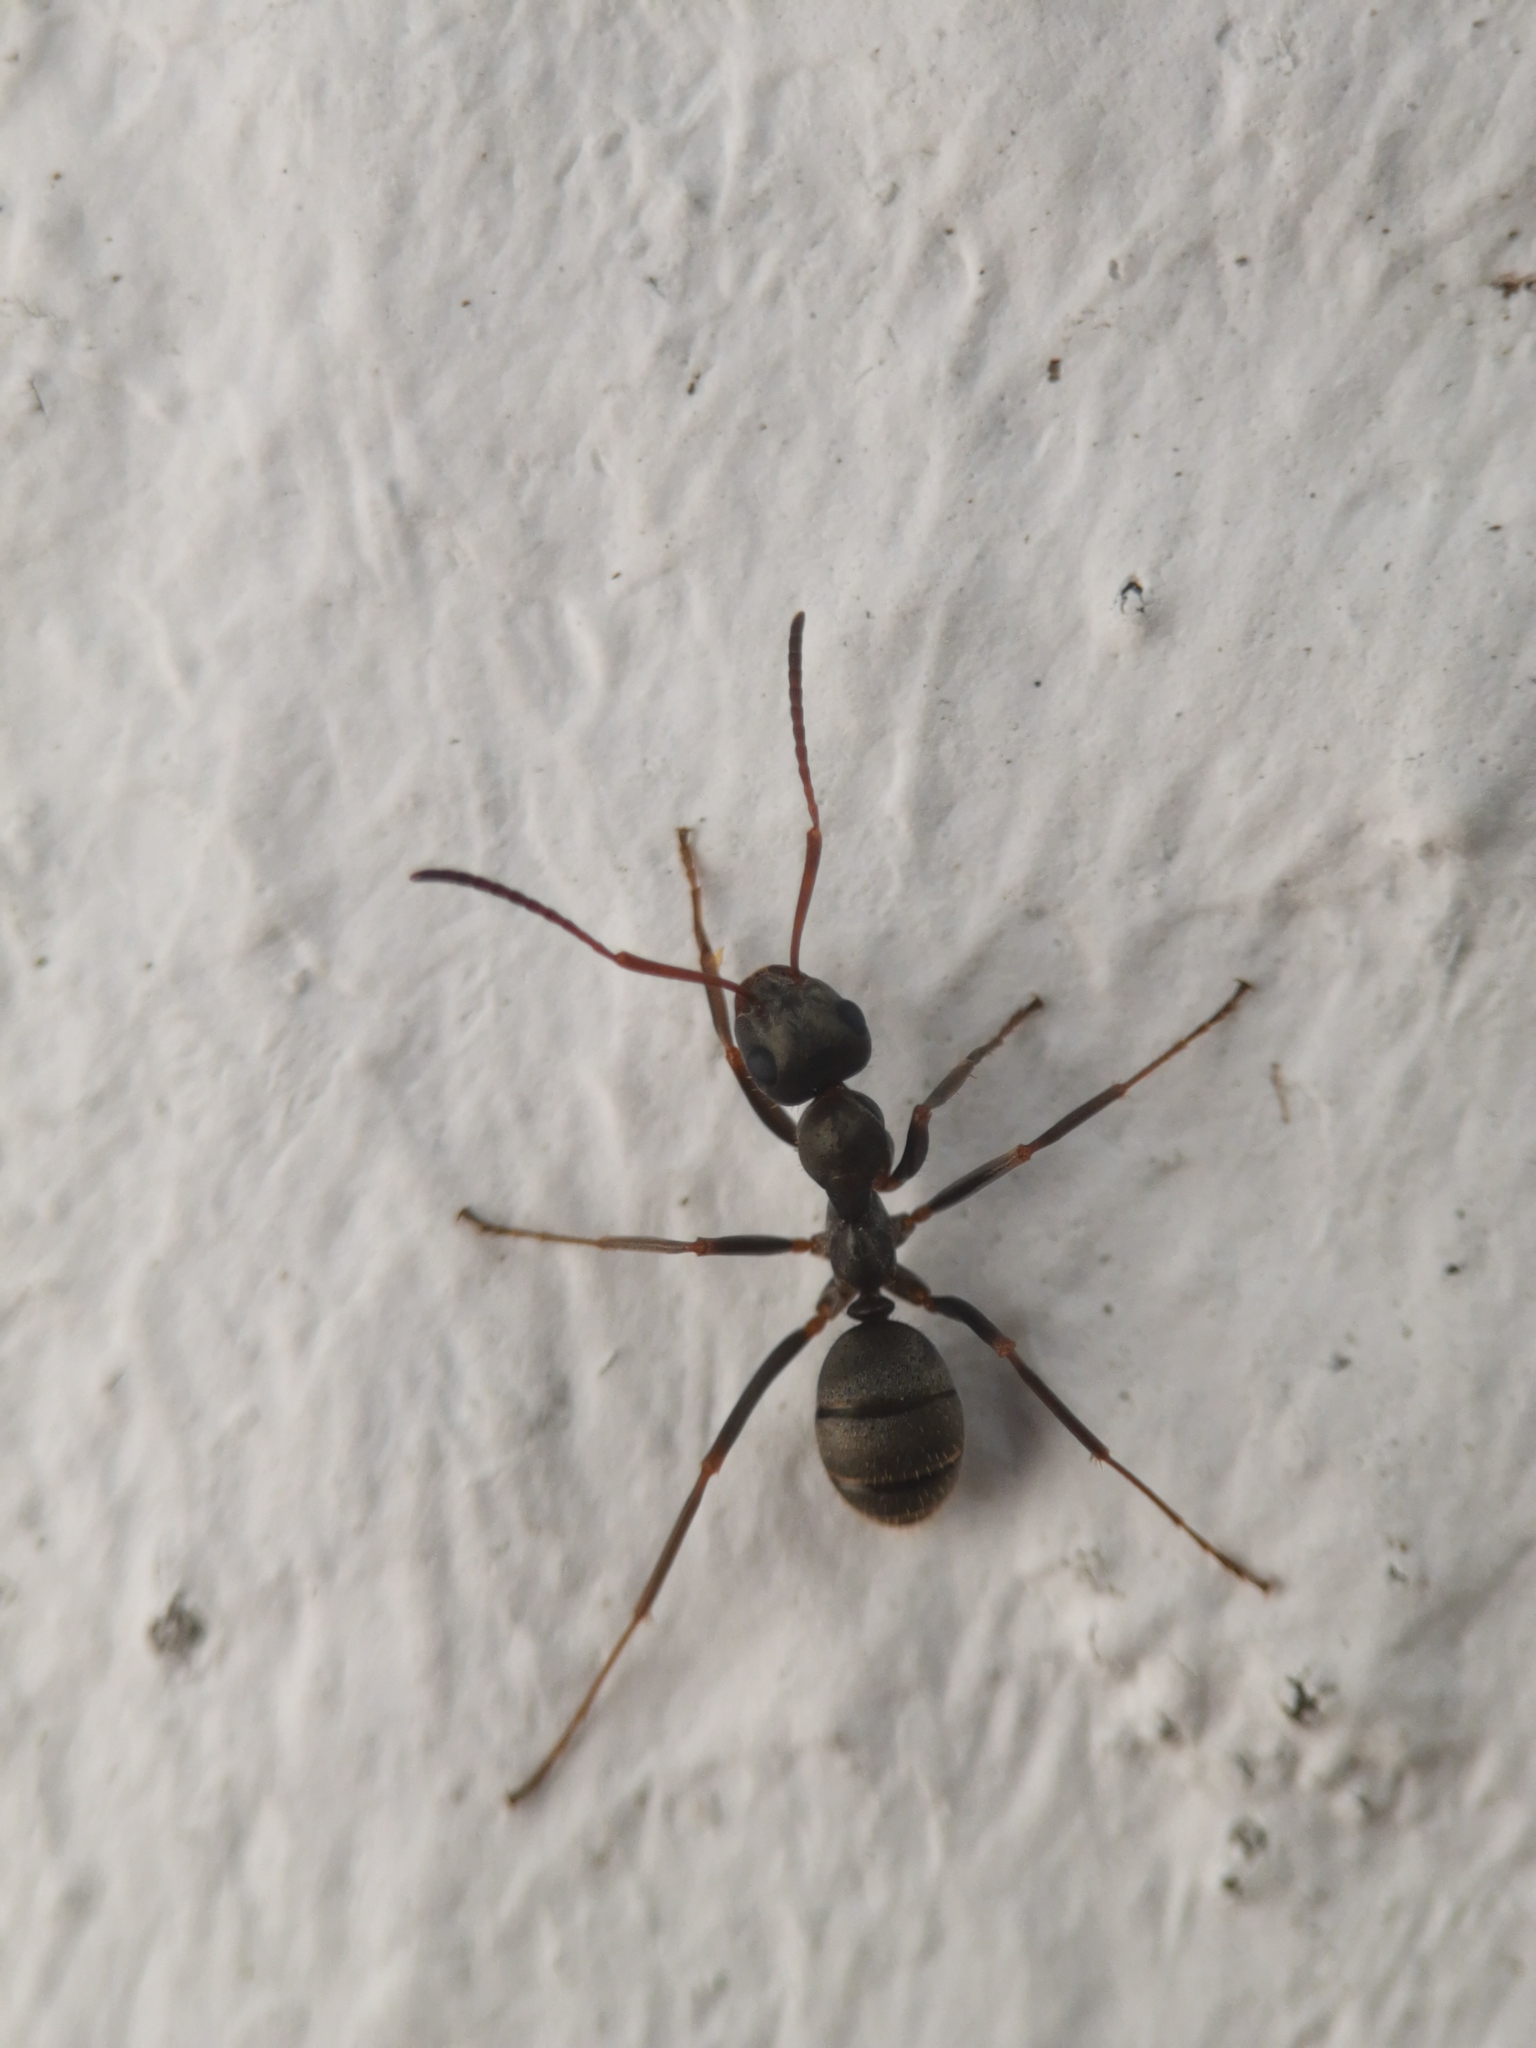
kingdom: Animalia
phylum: Arthropoda
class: Insecta
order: Hymenoptera
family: Formicidae
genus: Formica
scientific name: Formica cinerea
